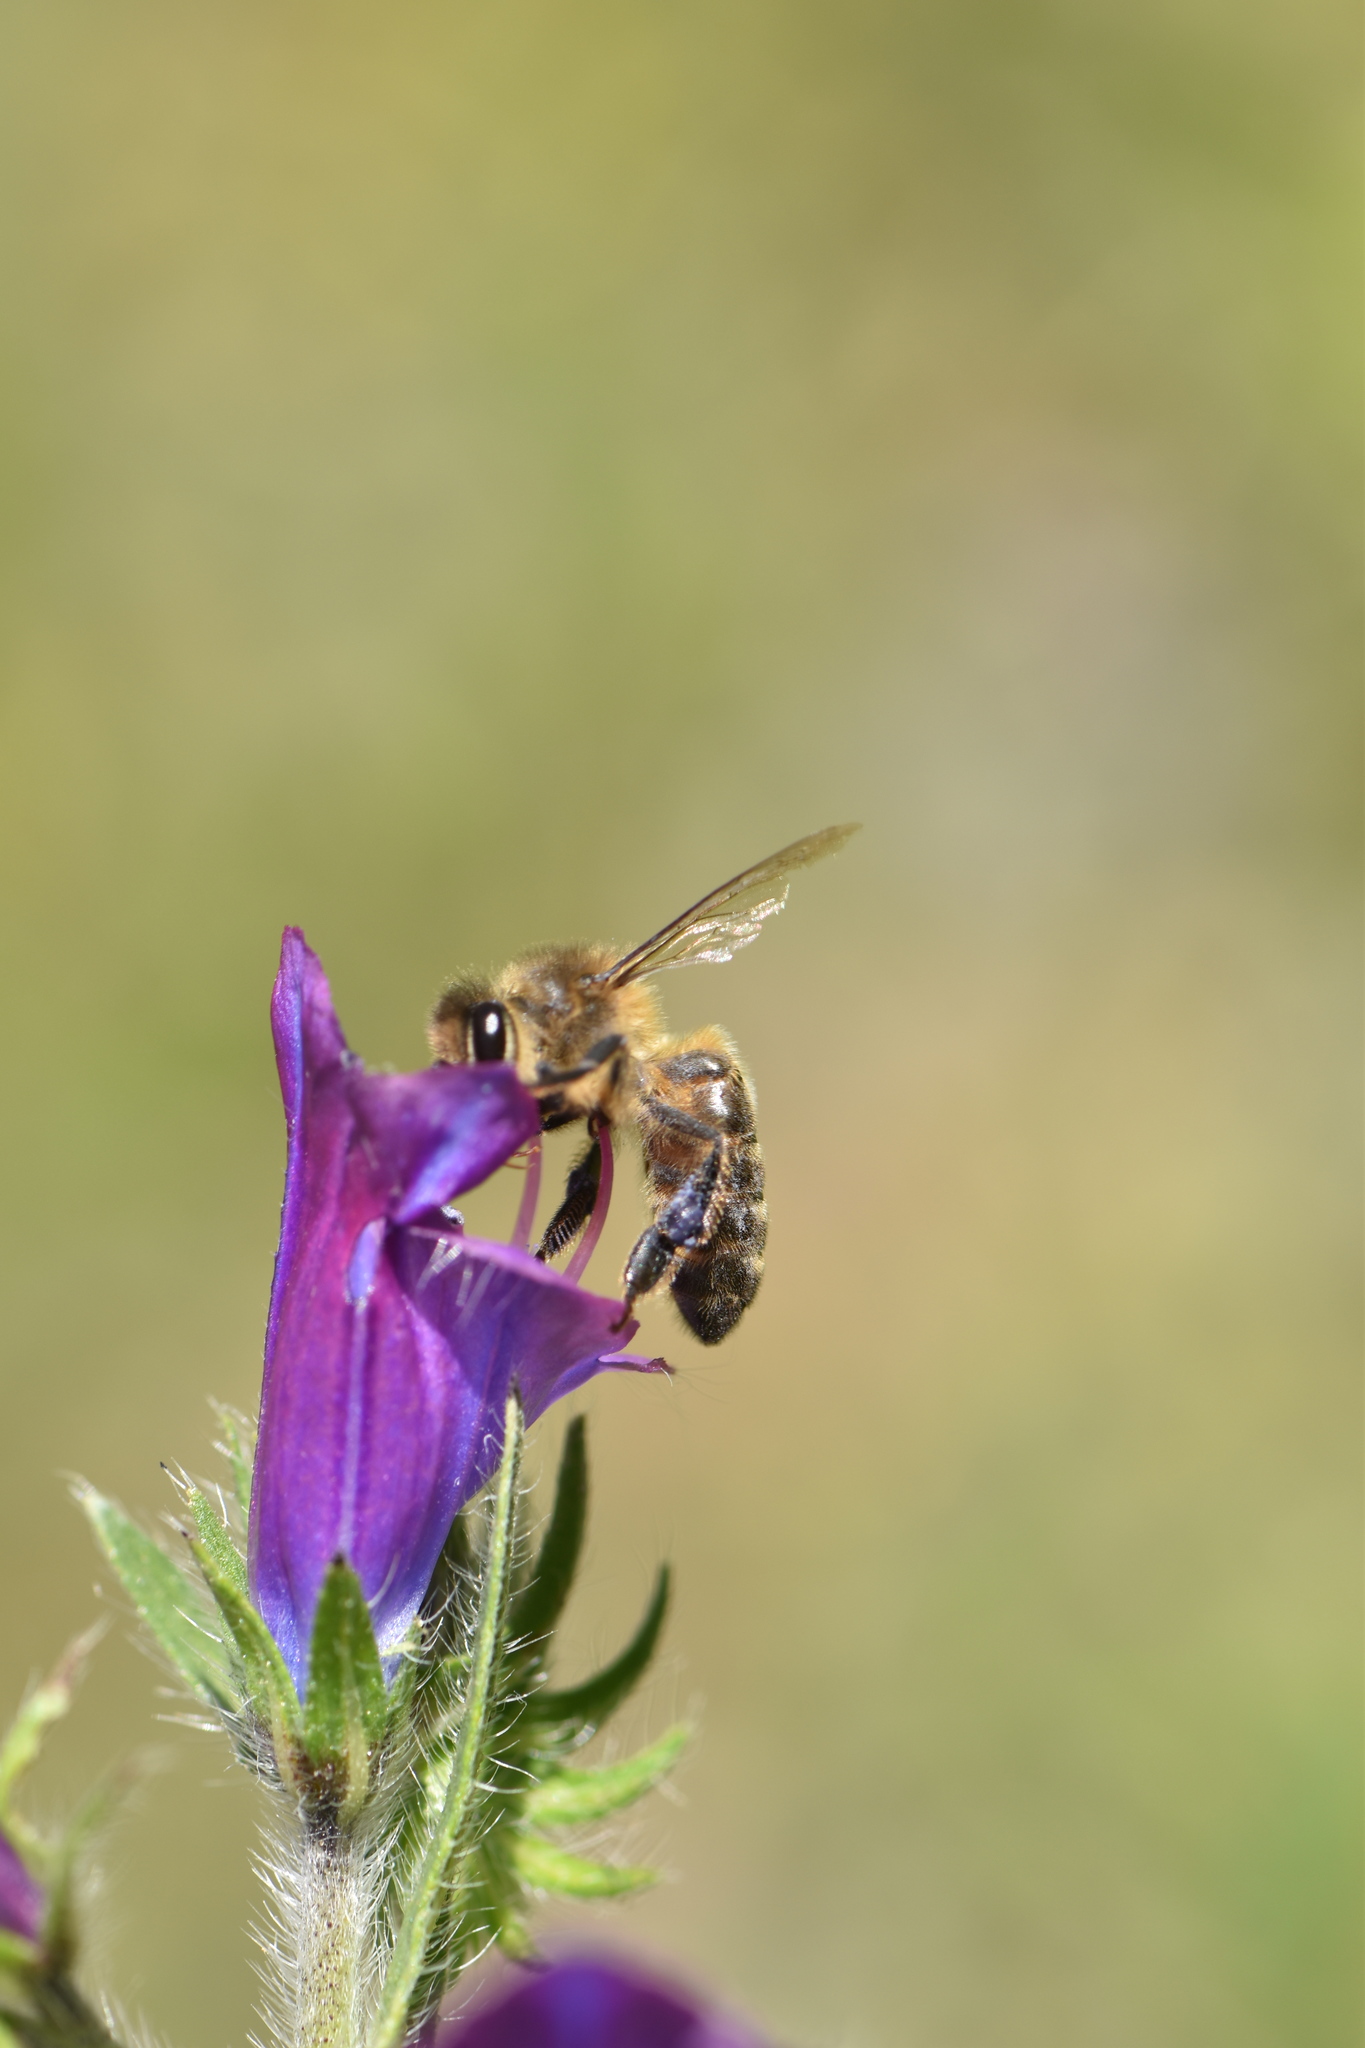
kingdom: Plantae
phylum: Tracheophyta
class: Magnoliopsida
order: Boraginales
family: Boraginaceae
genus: Echium
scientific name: Echium plantagineum
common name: Purple viper's-bugloss
